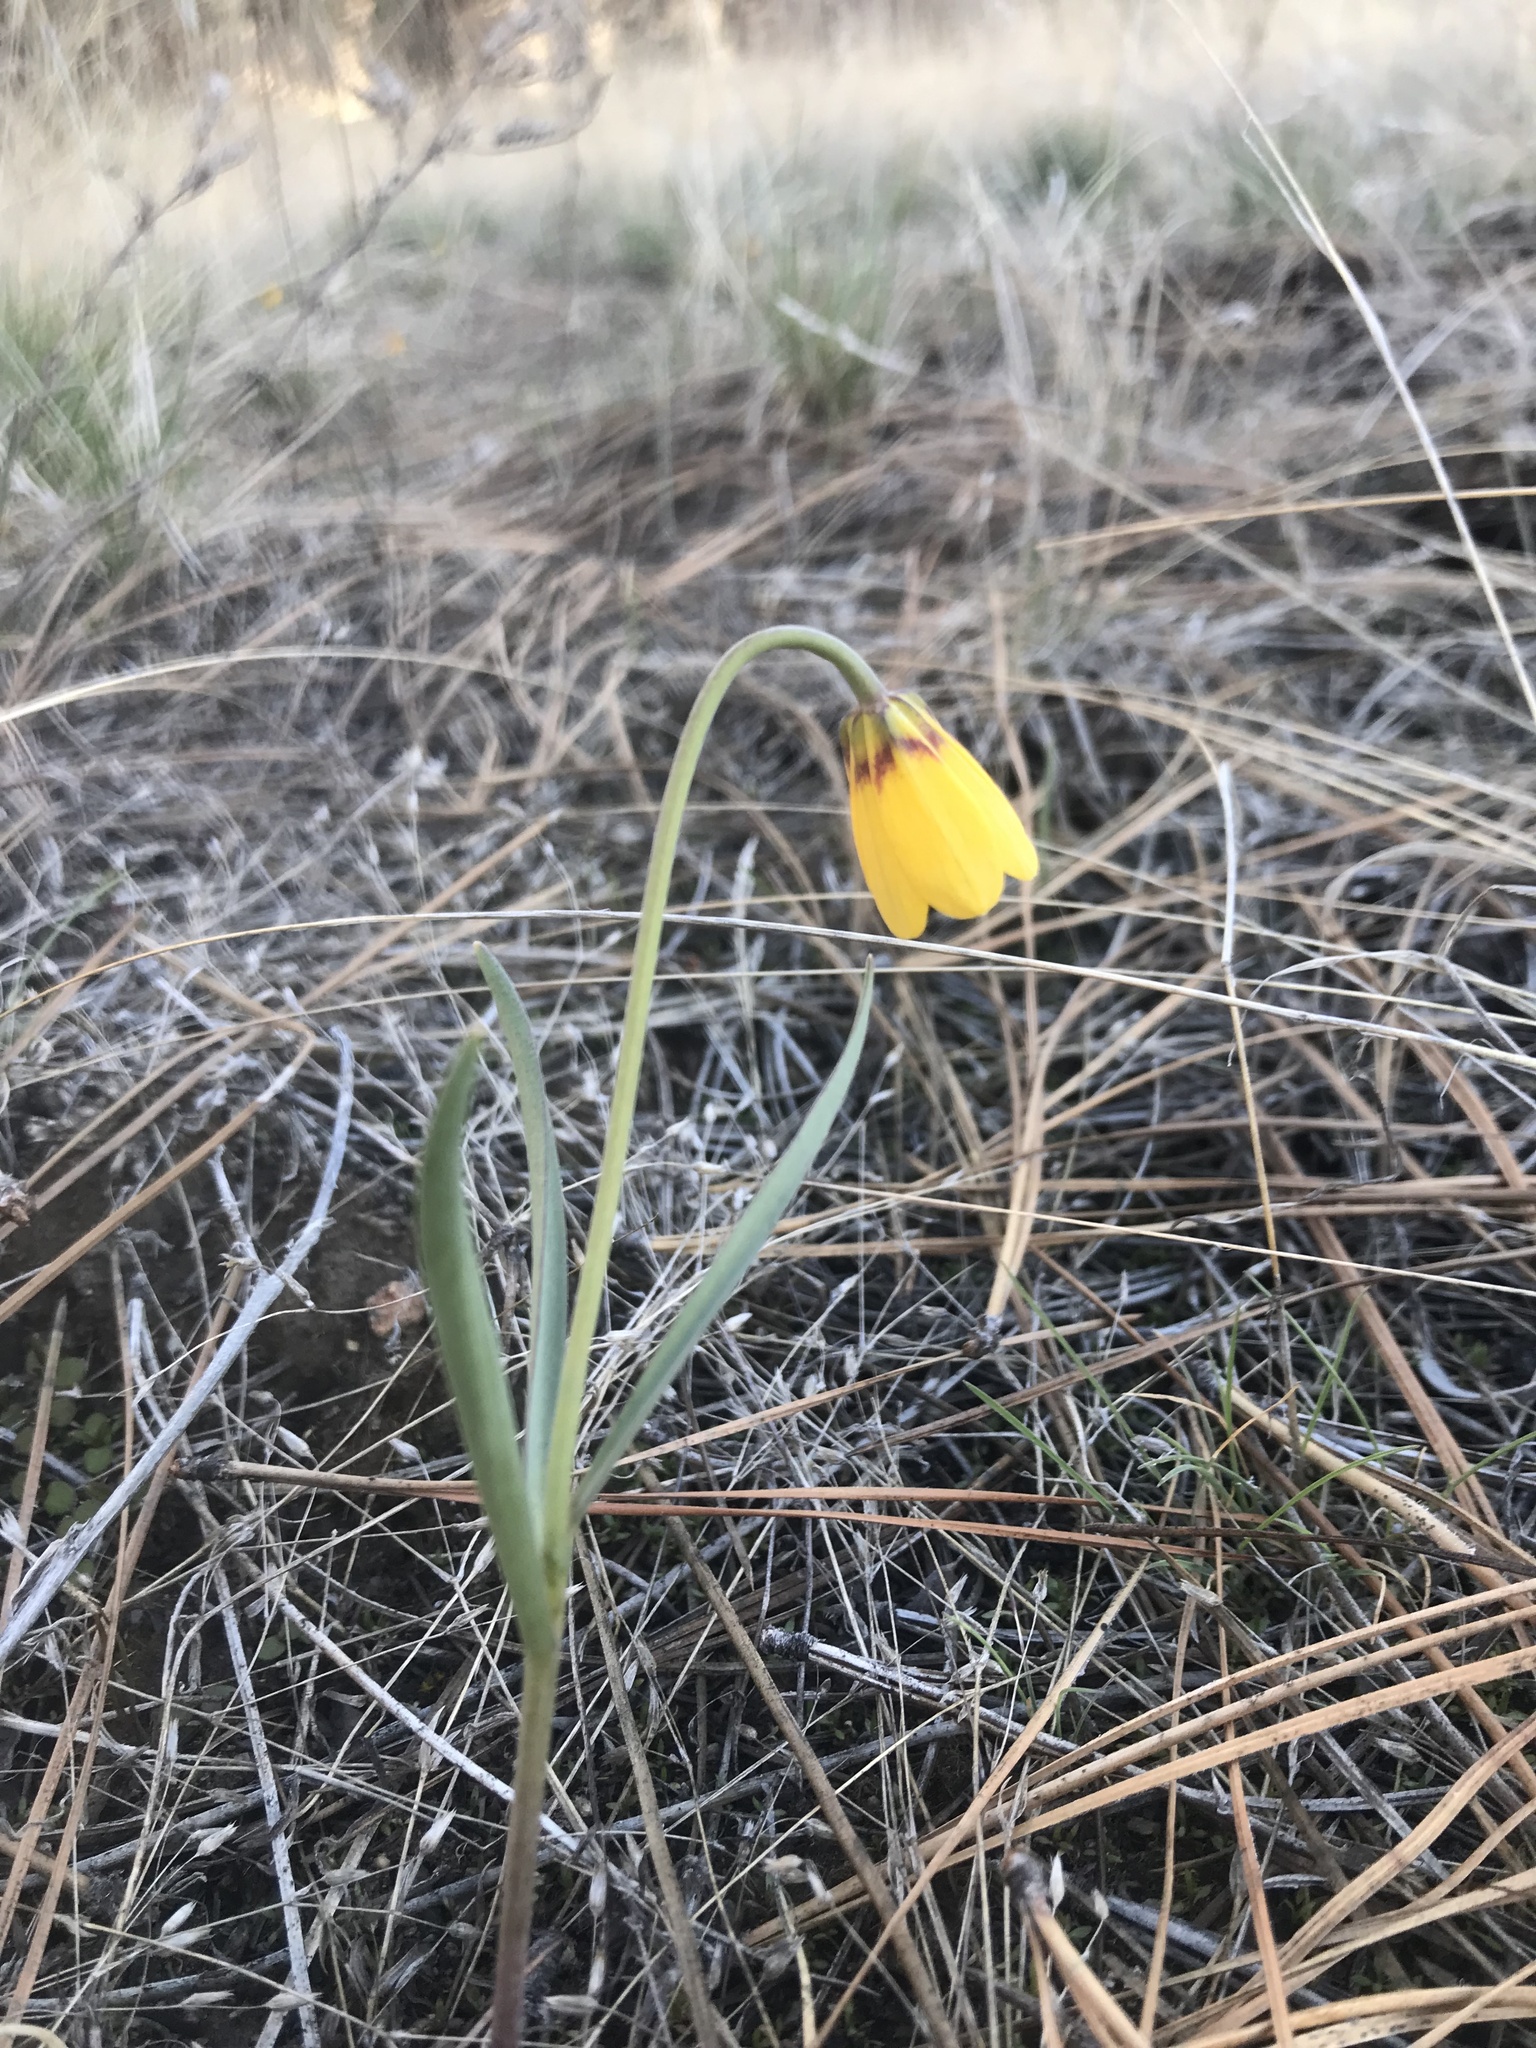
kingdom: Plantae
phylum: Tracheophyta
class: Liliopsida
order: Liliales
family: Liliaceae
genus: Fritillaria
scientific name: Fritillaria pudica
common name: Yellow fritillary
